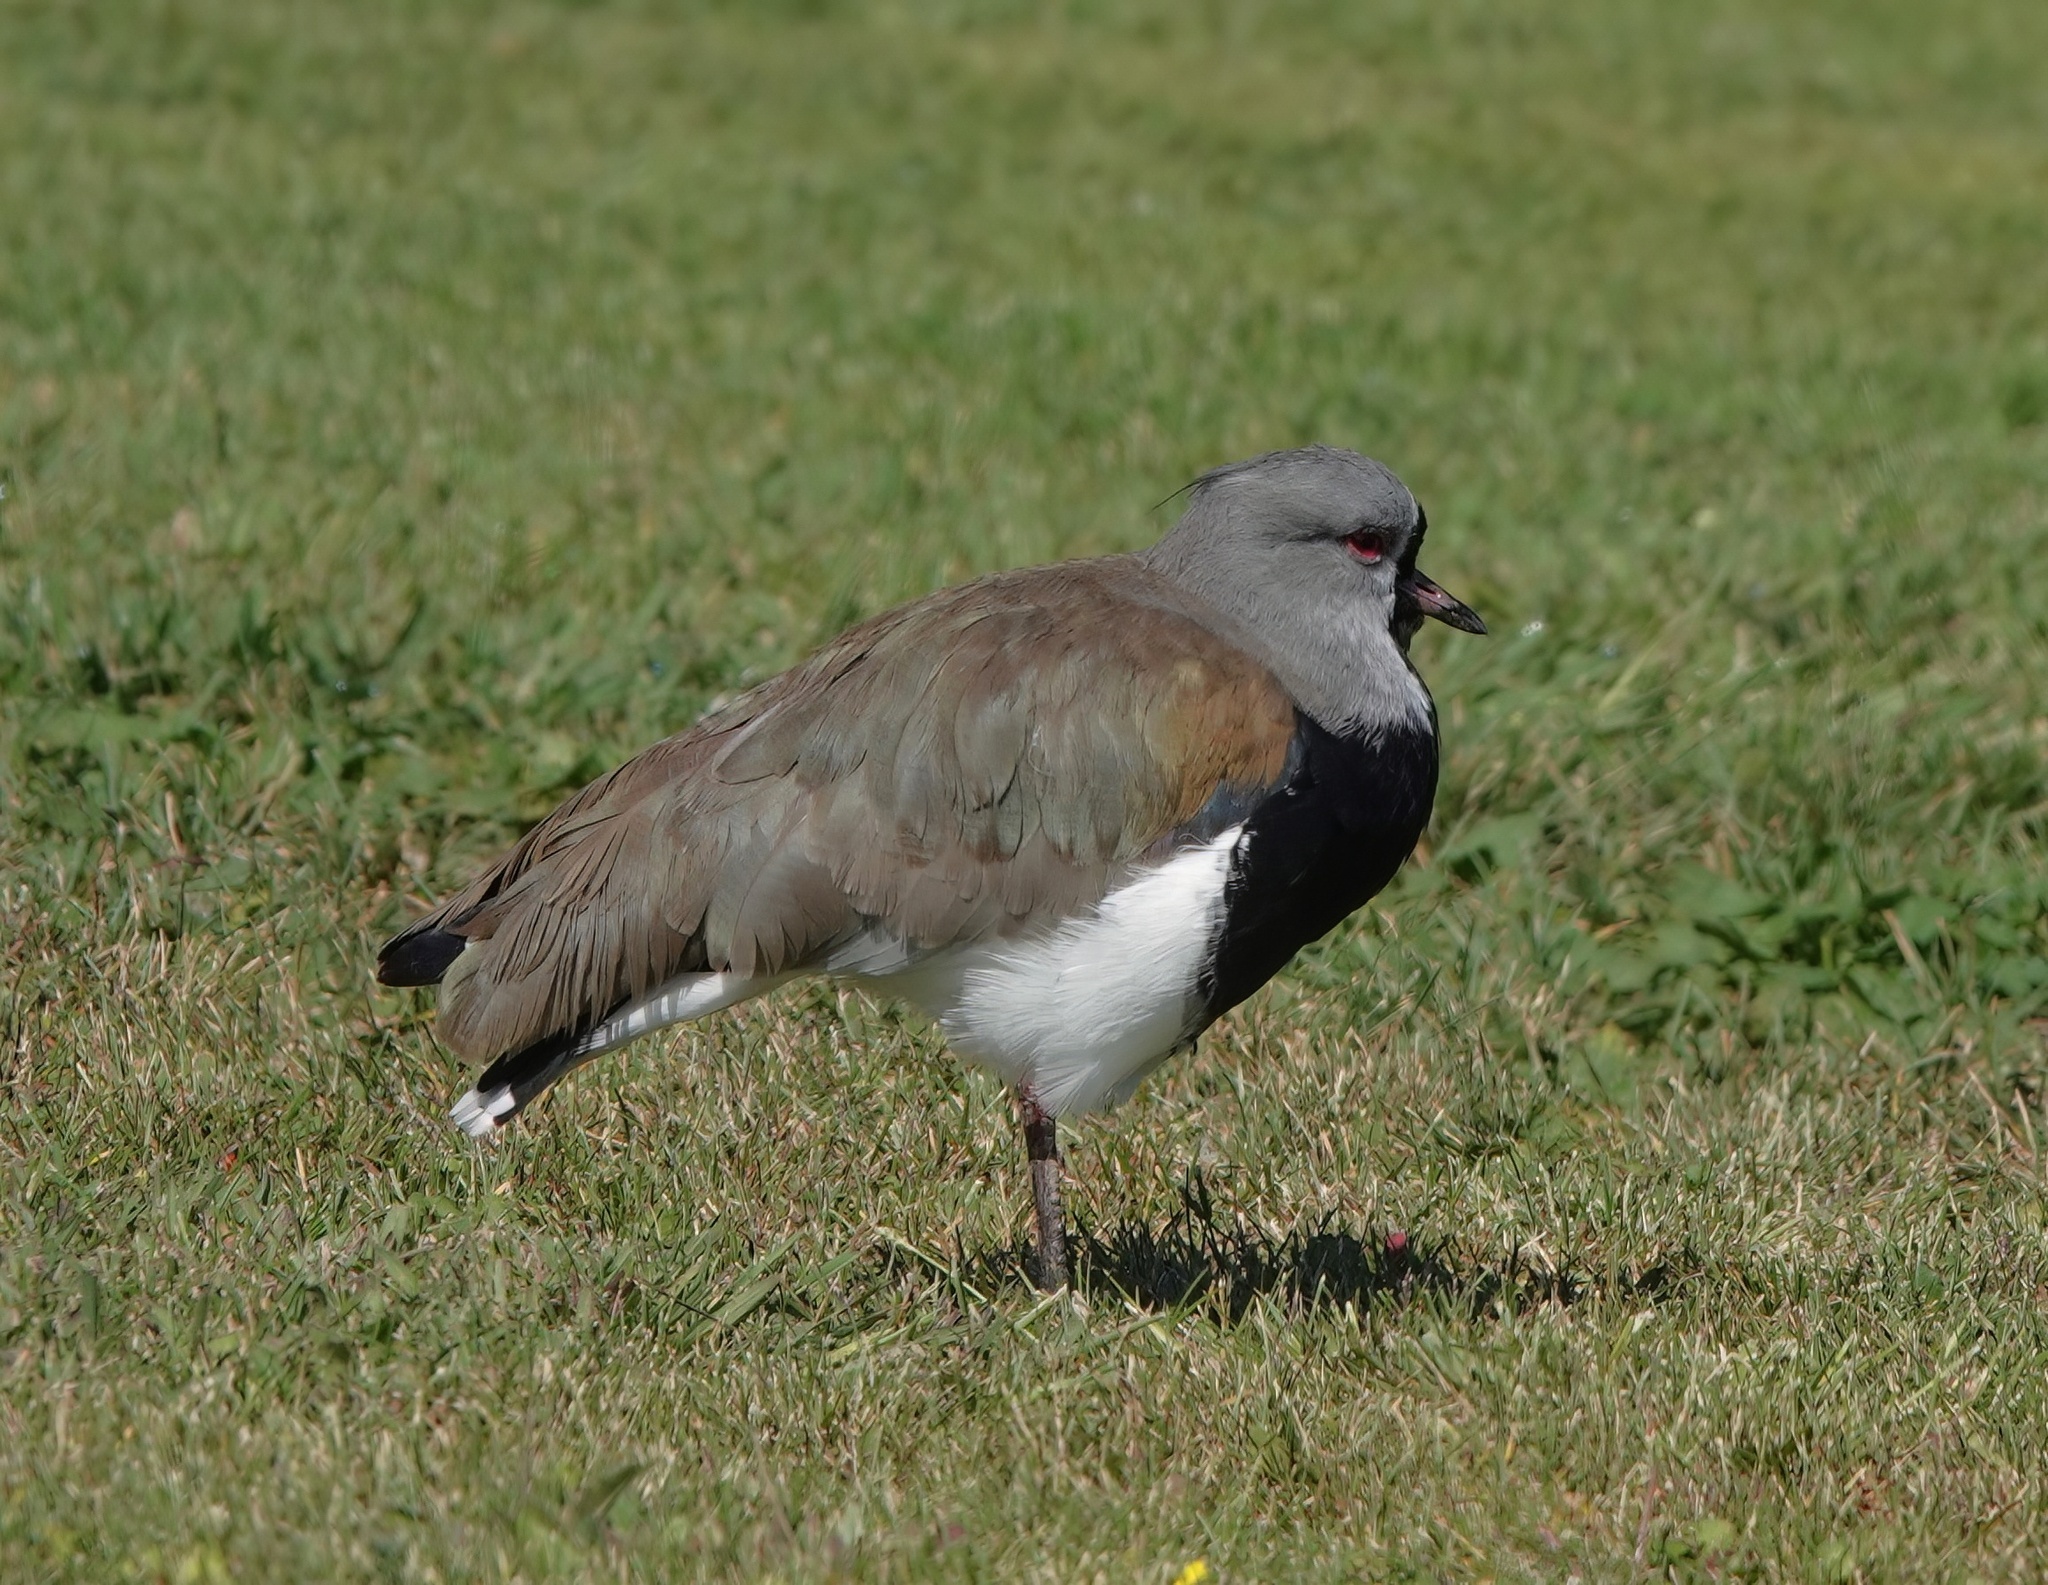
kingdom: Animalia
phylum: Chordata
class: Aves
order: Charadriiformes
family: Charadriidae
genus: Vanellus
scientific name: Vanellus chilensis
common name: Southern lapwing
